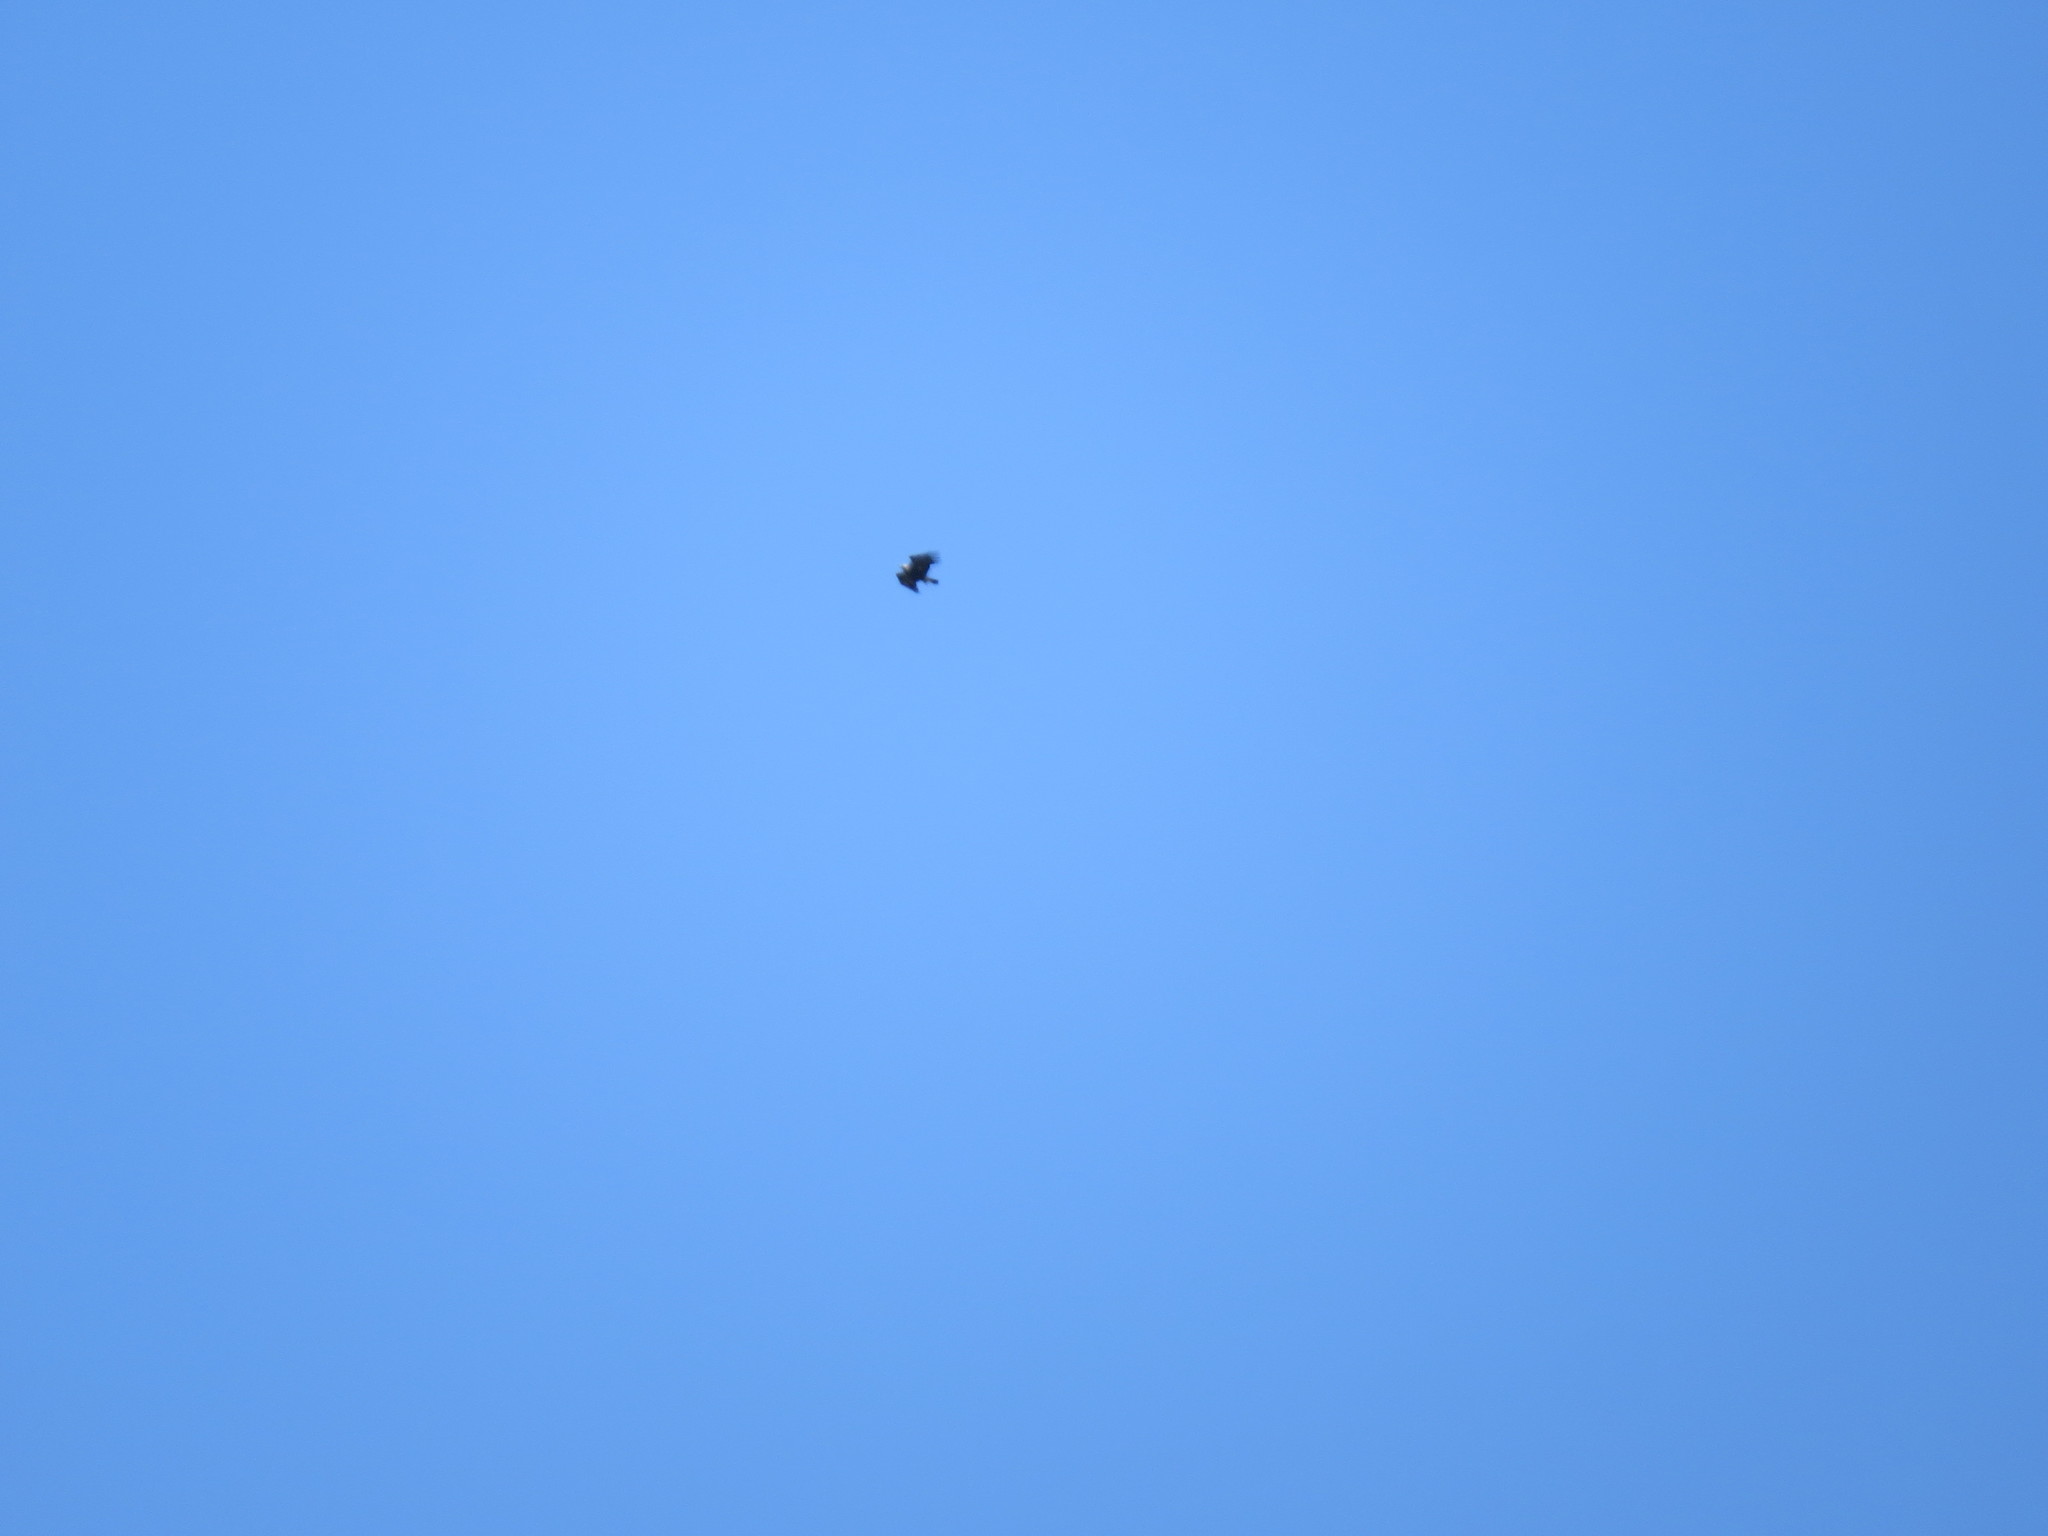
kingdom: Animalia
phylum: Chordata
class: Aves
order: Accipitriformes
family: Accipitridae
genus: Milvus
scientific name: Milvus migrans
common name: Black kite
